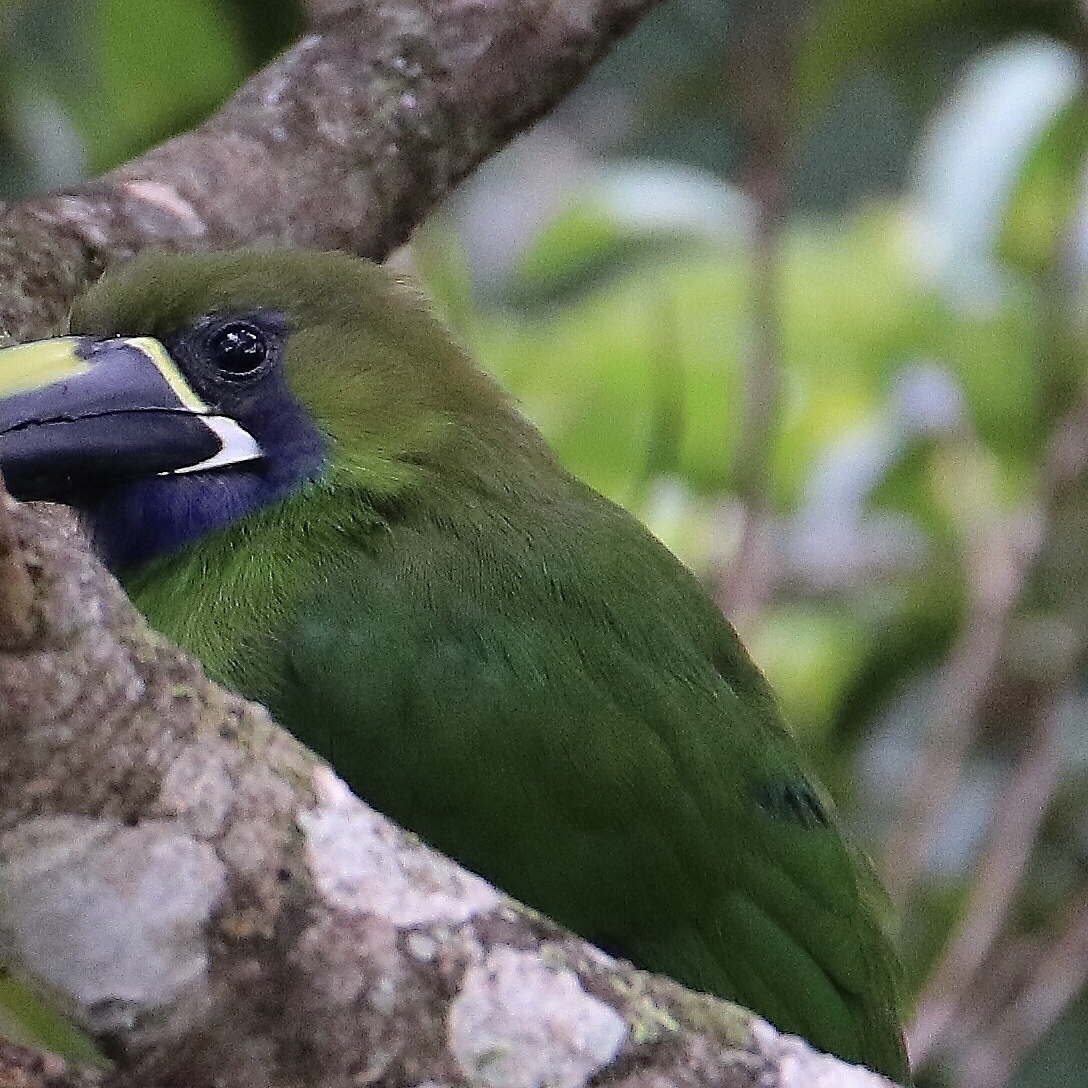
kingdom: Animalia
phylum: Chordata
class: Aves
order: Piciformes
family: Ramphastidae
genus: Aulacorhynchus
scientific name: Aulacorhynchus prasinus
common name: Emerald toucanet
